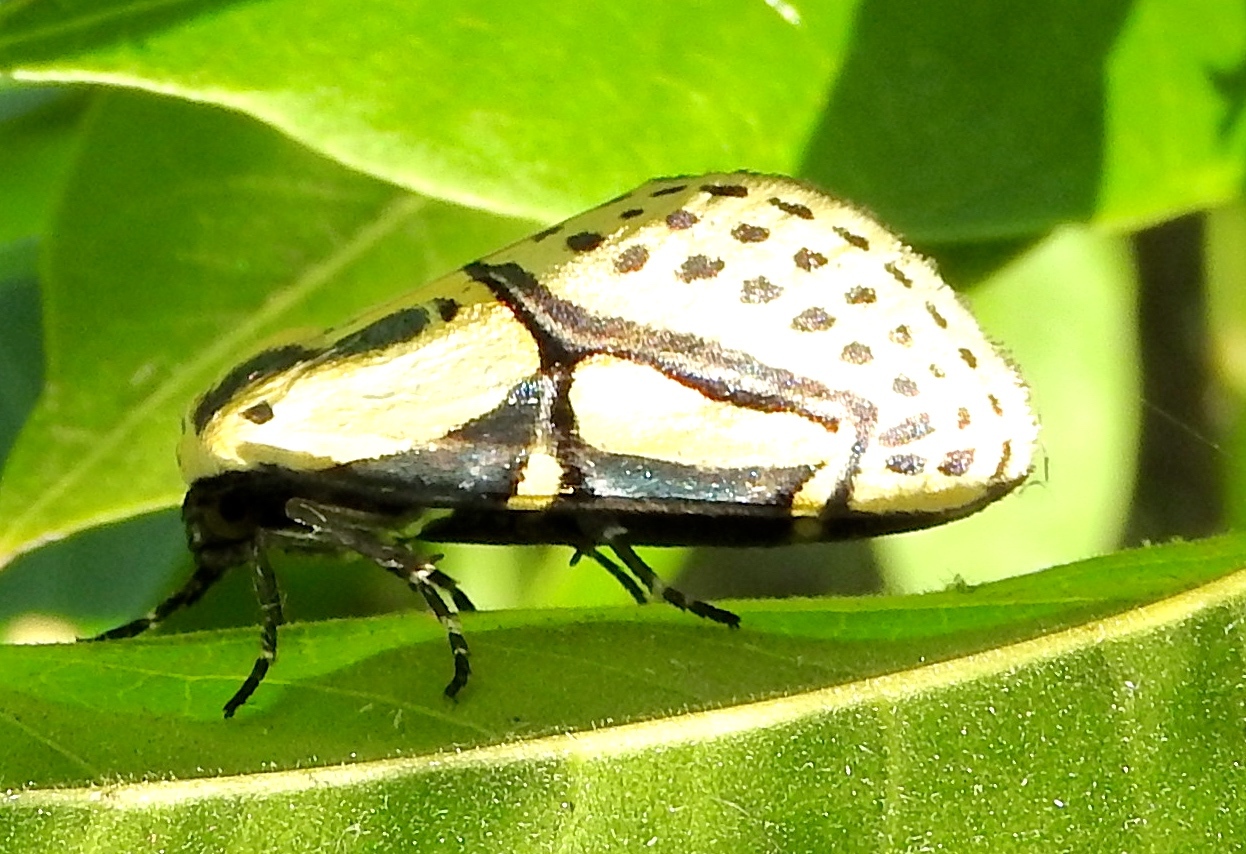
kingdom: Animalia
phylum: Arthropoda
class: Insecta
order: Lepidoptera
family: Erebidae
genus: Diphthera
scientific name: Diphthera festiva
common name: Hieroglyphic moth
